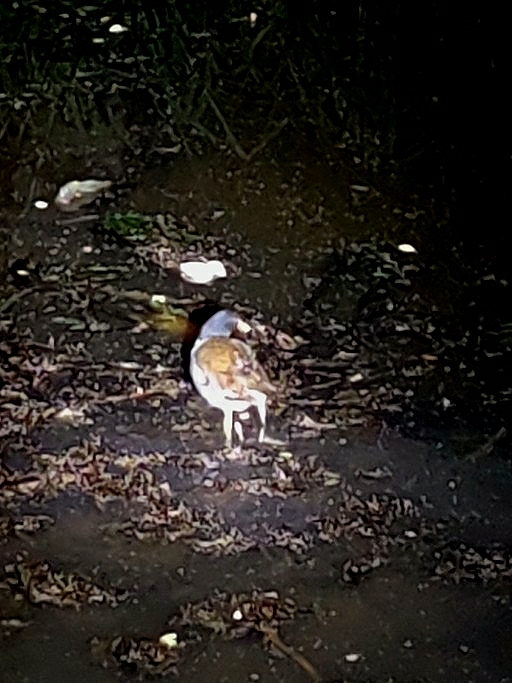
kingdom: Animalia
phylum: Chordata
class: Aves
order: Gruiformes
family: Rallidae
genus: Gallinula
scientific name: Gallinula chloropus
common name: Common moorhen
